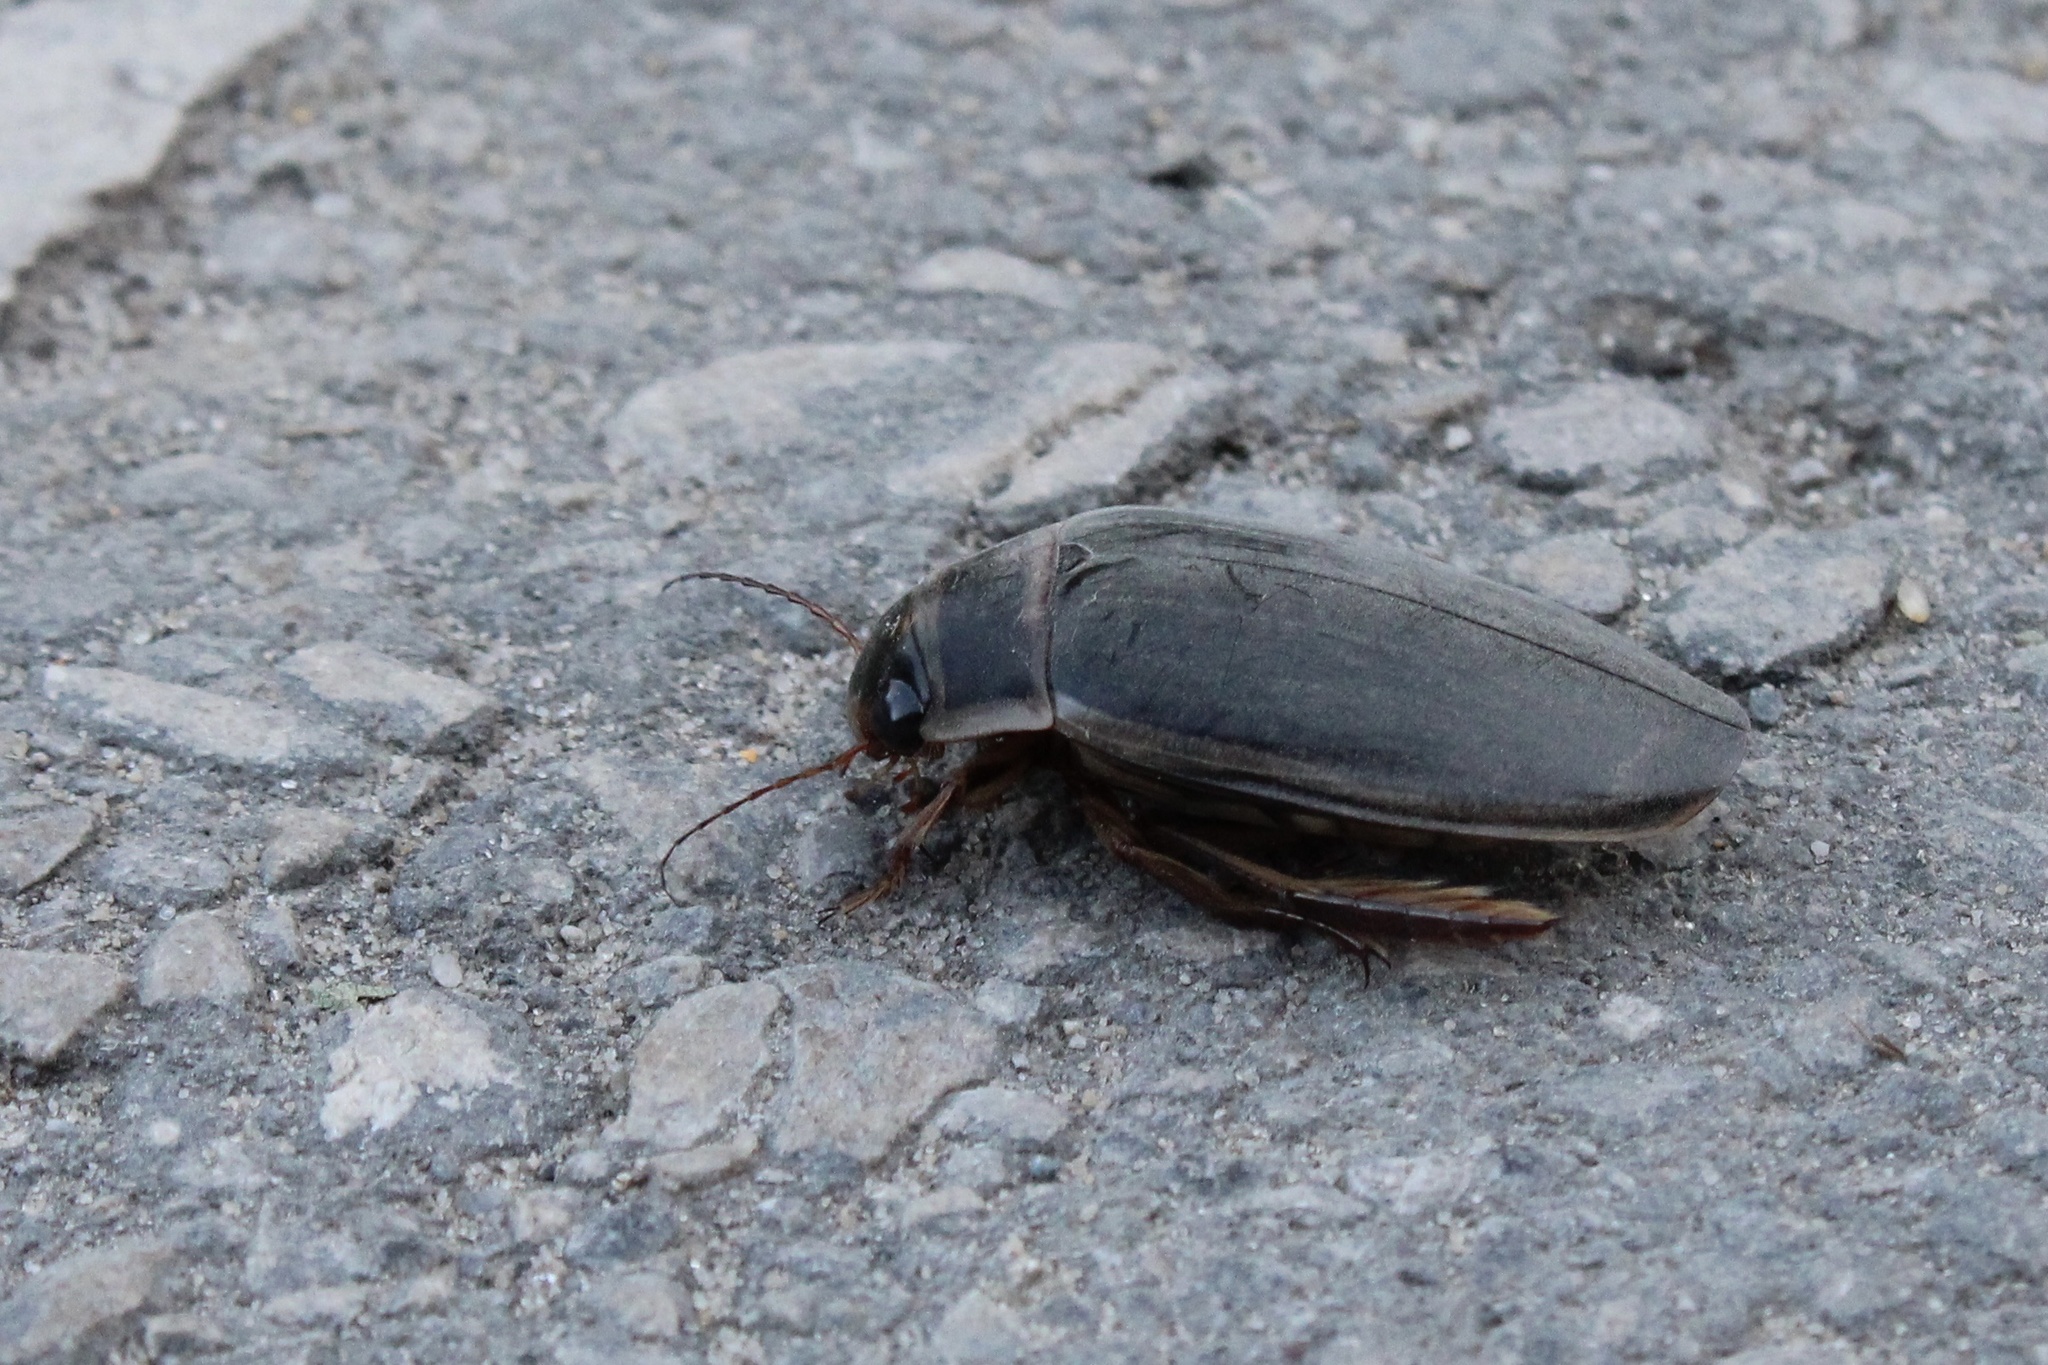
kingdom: Animalia
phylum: Arthropoda
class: Insecta
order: Coleoptera
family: Dytiscidae
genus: Dytiscus
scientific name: Dytiscus
